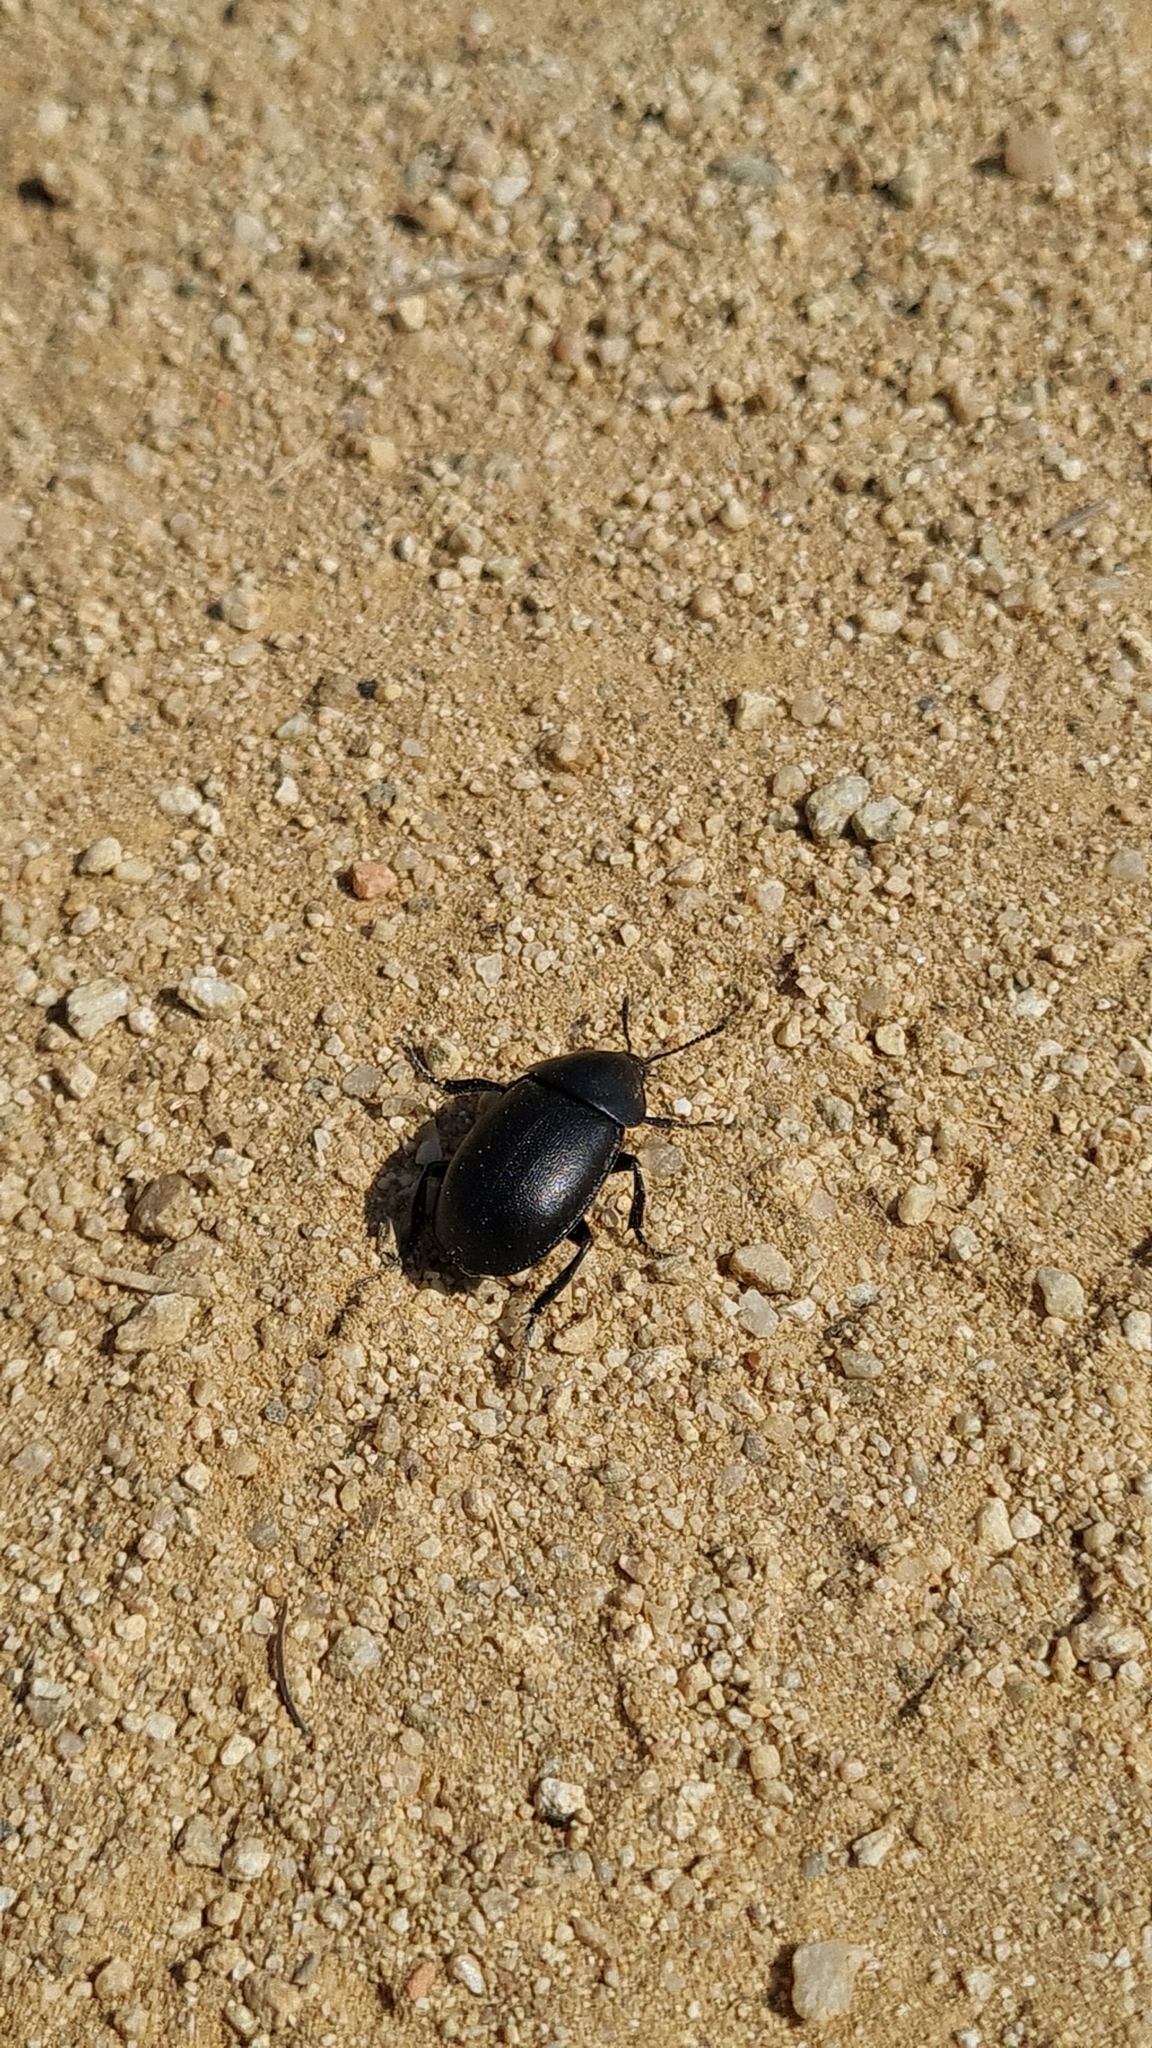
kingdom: Animalia
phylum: Arthropoda
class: Insecta
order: Coleoptera
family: Staphylinidae
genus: Silpha
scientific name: Silpha laevigata
